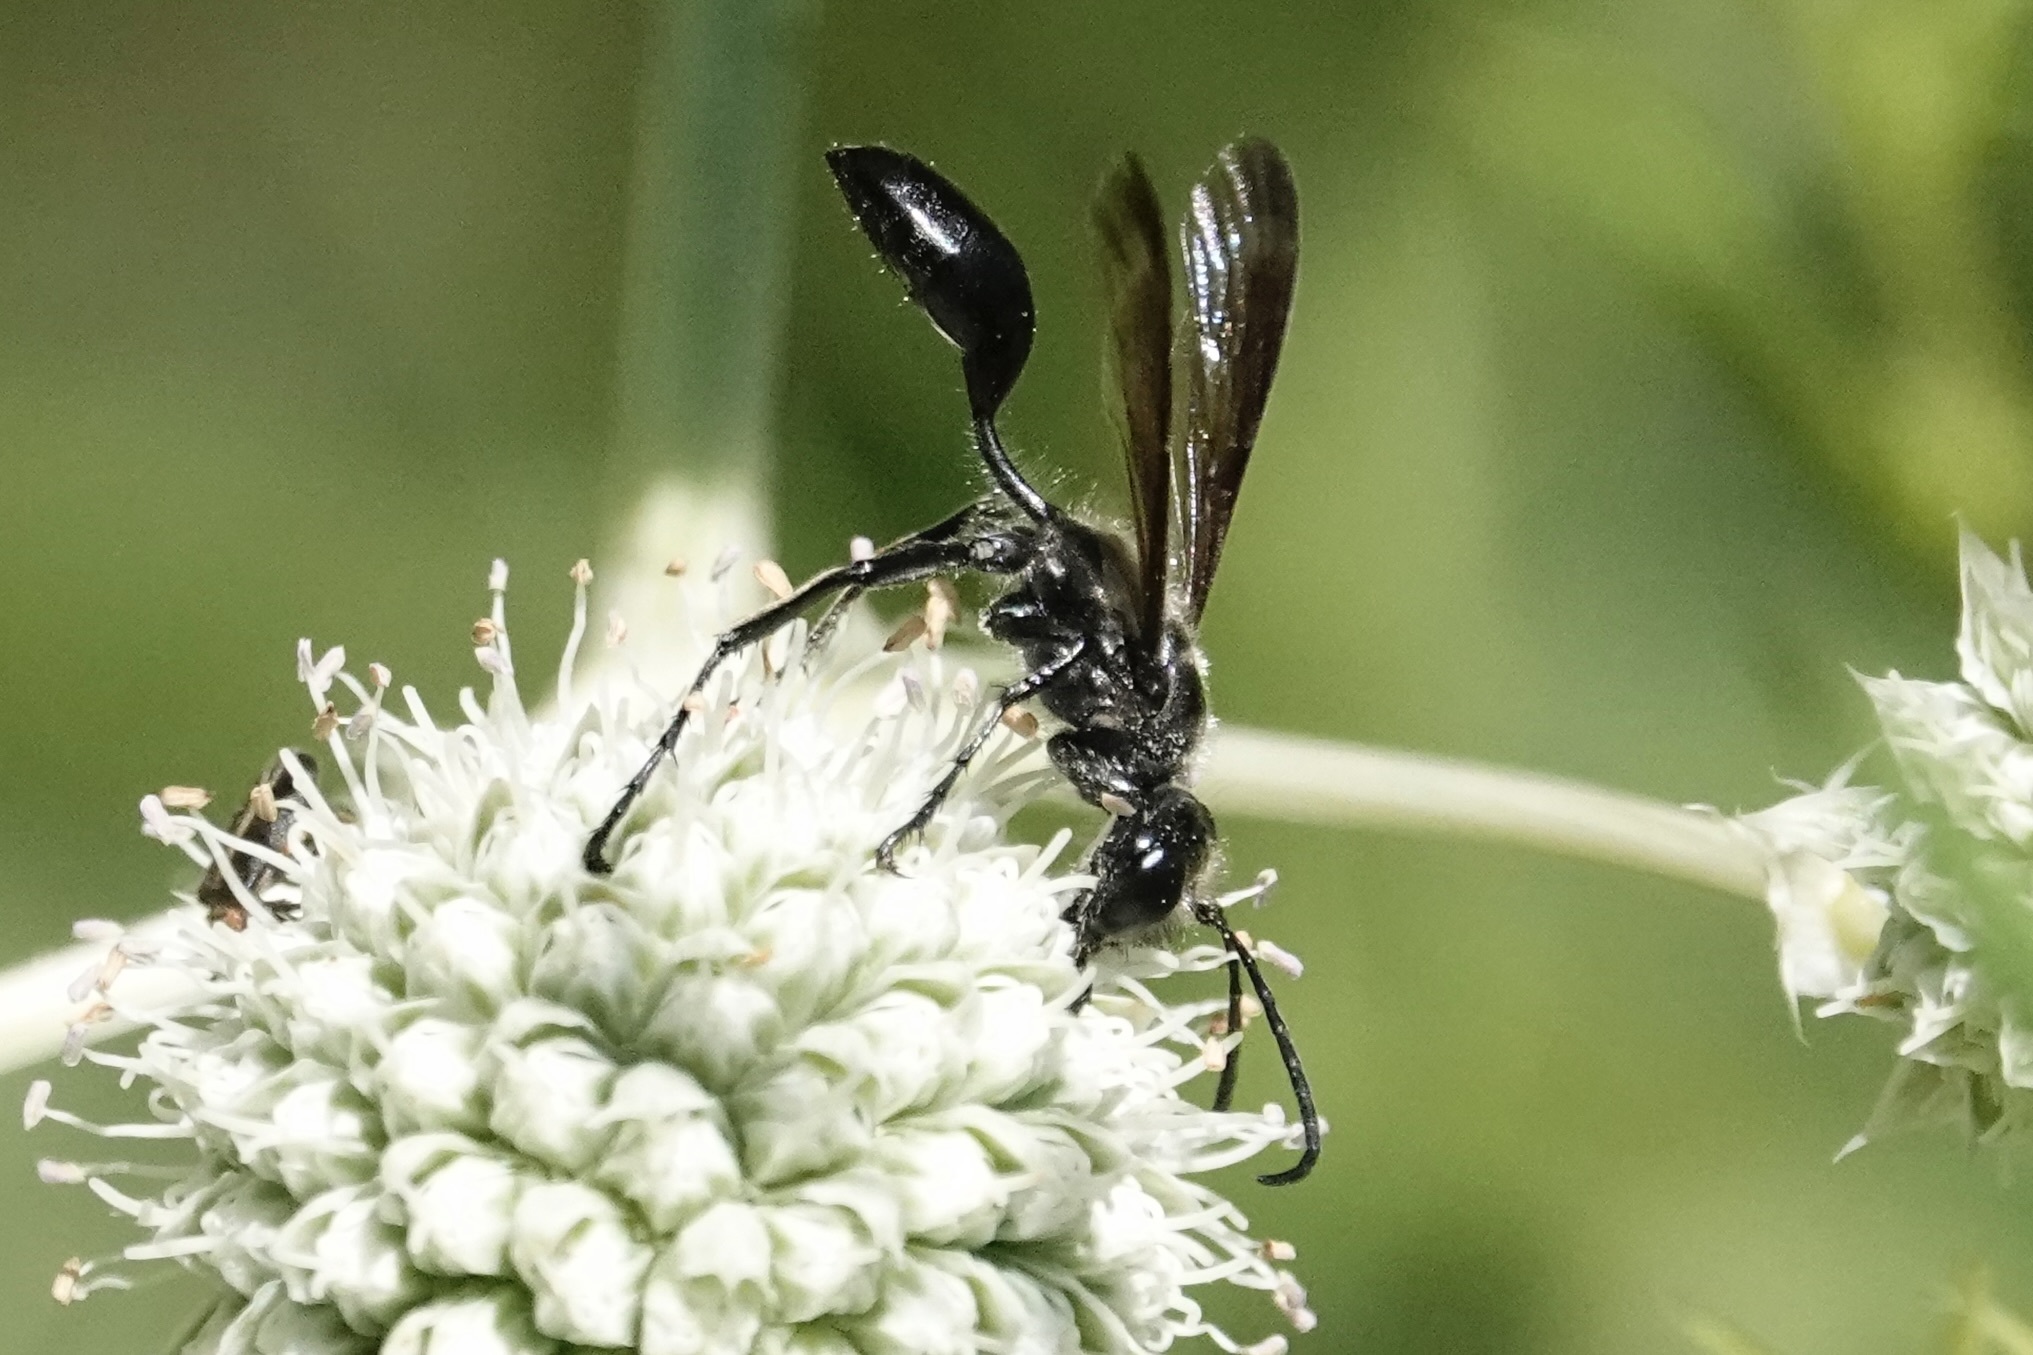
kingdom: Animalia
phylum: Arthropoda
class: Insecta
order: Hymenoptera
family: Sphecidae
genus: Isodontia
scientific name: Isodontia mexicana
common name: Mud dauber
